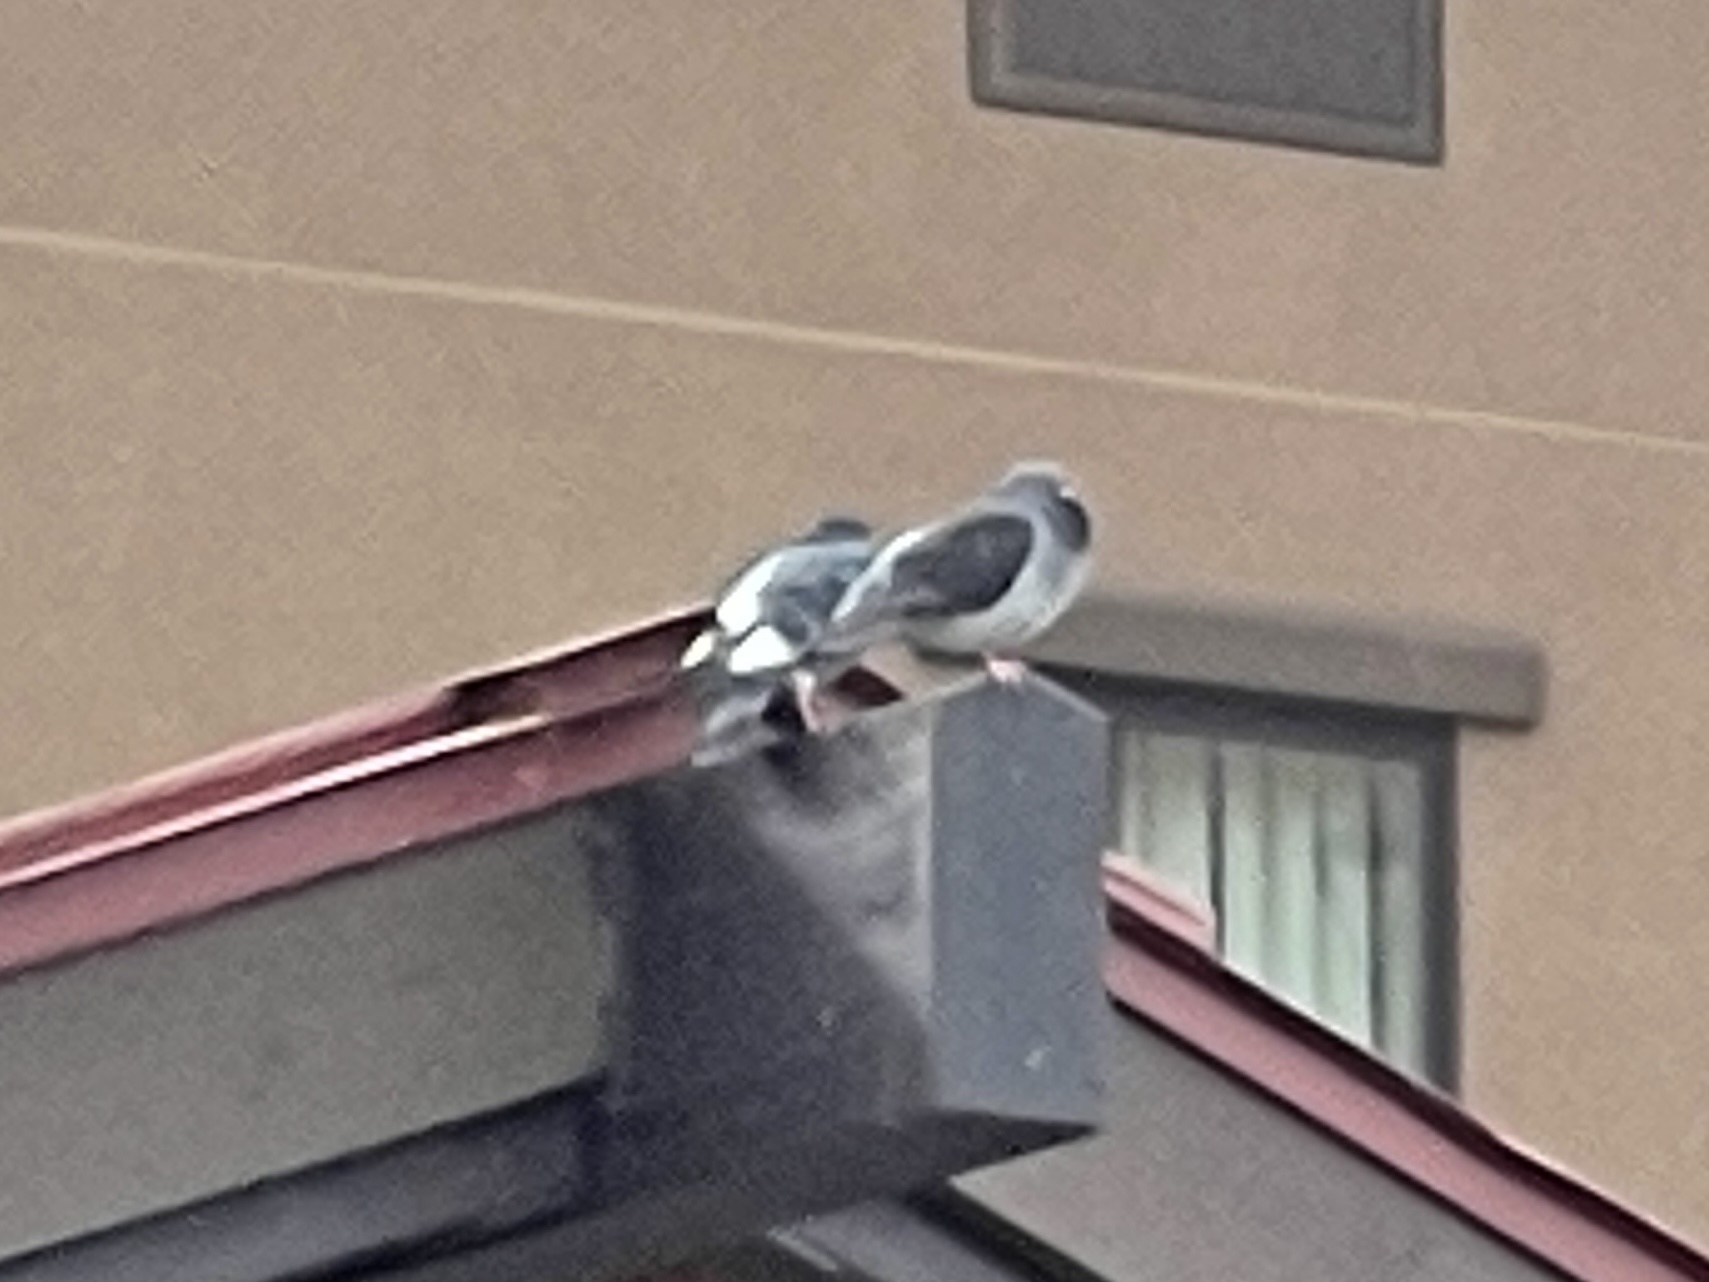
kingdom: Animalia
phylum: Chordata
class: Aves
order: Columbiformes
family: Columbidae
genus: Columba
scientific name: Columba livia
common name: Rock pigeon
